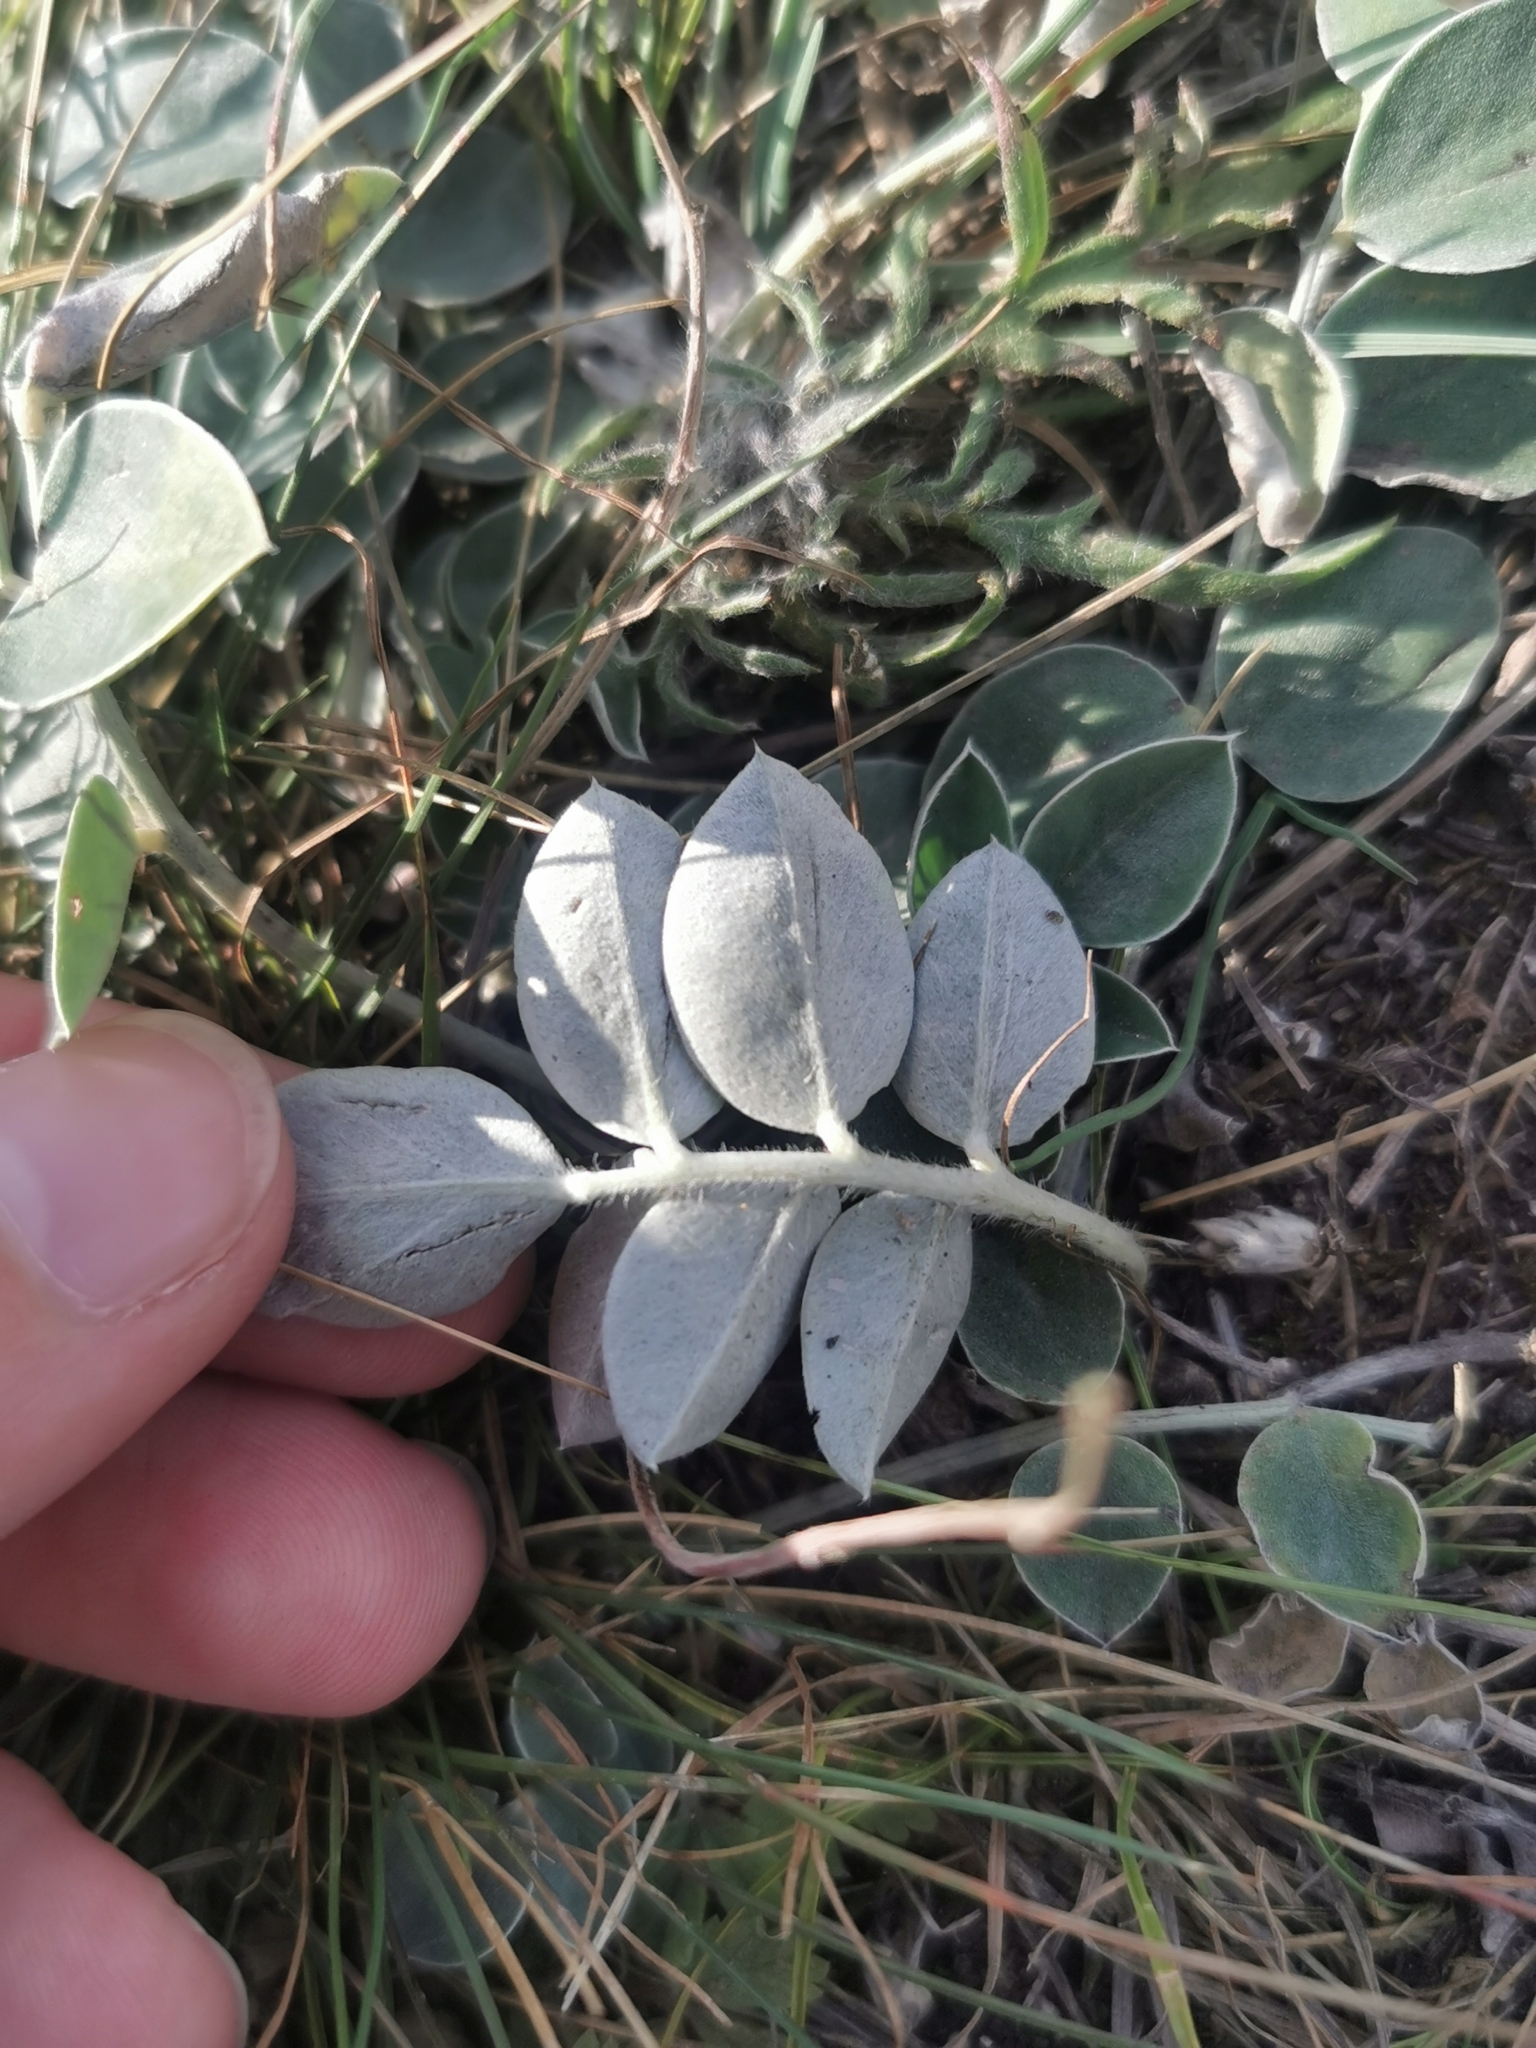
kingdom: Plantae
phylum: Tracheophyta
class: Magnoliopsida
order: Fabales
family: Fabaceae
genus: Hedysarum
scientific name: Hedysarum grandiflorum
